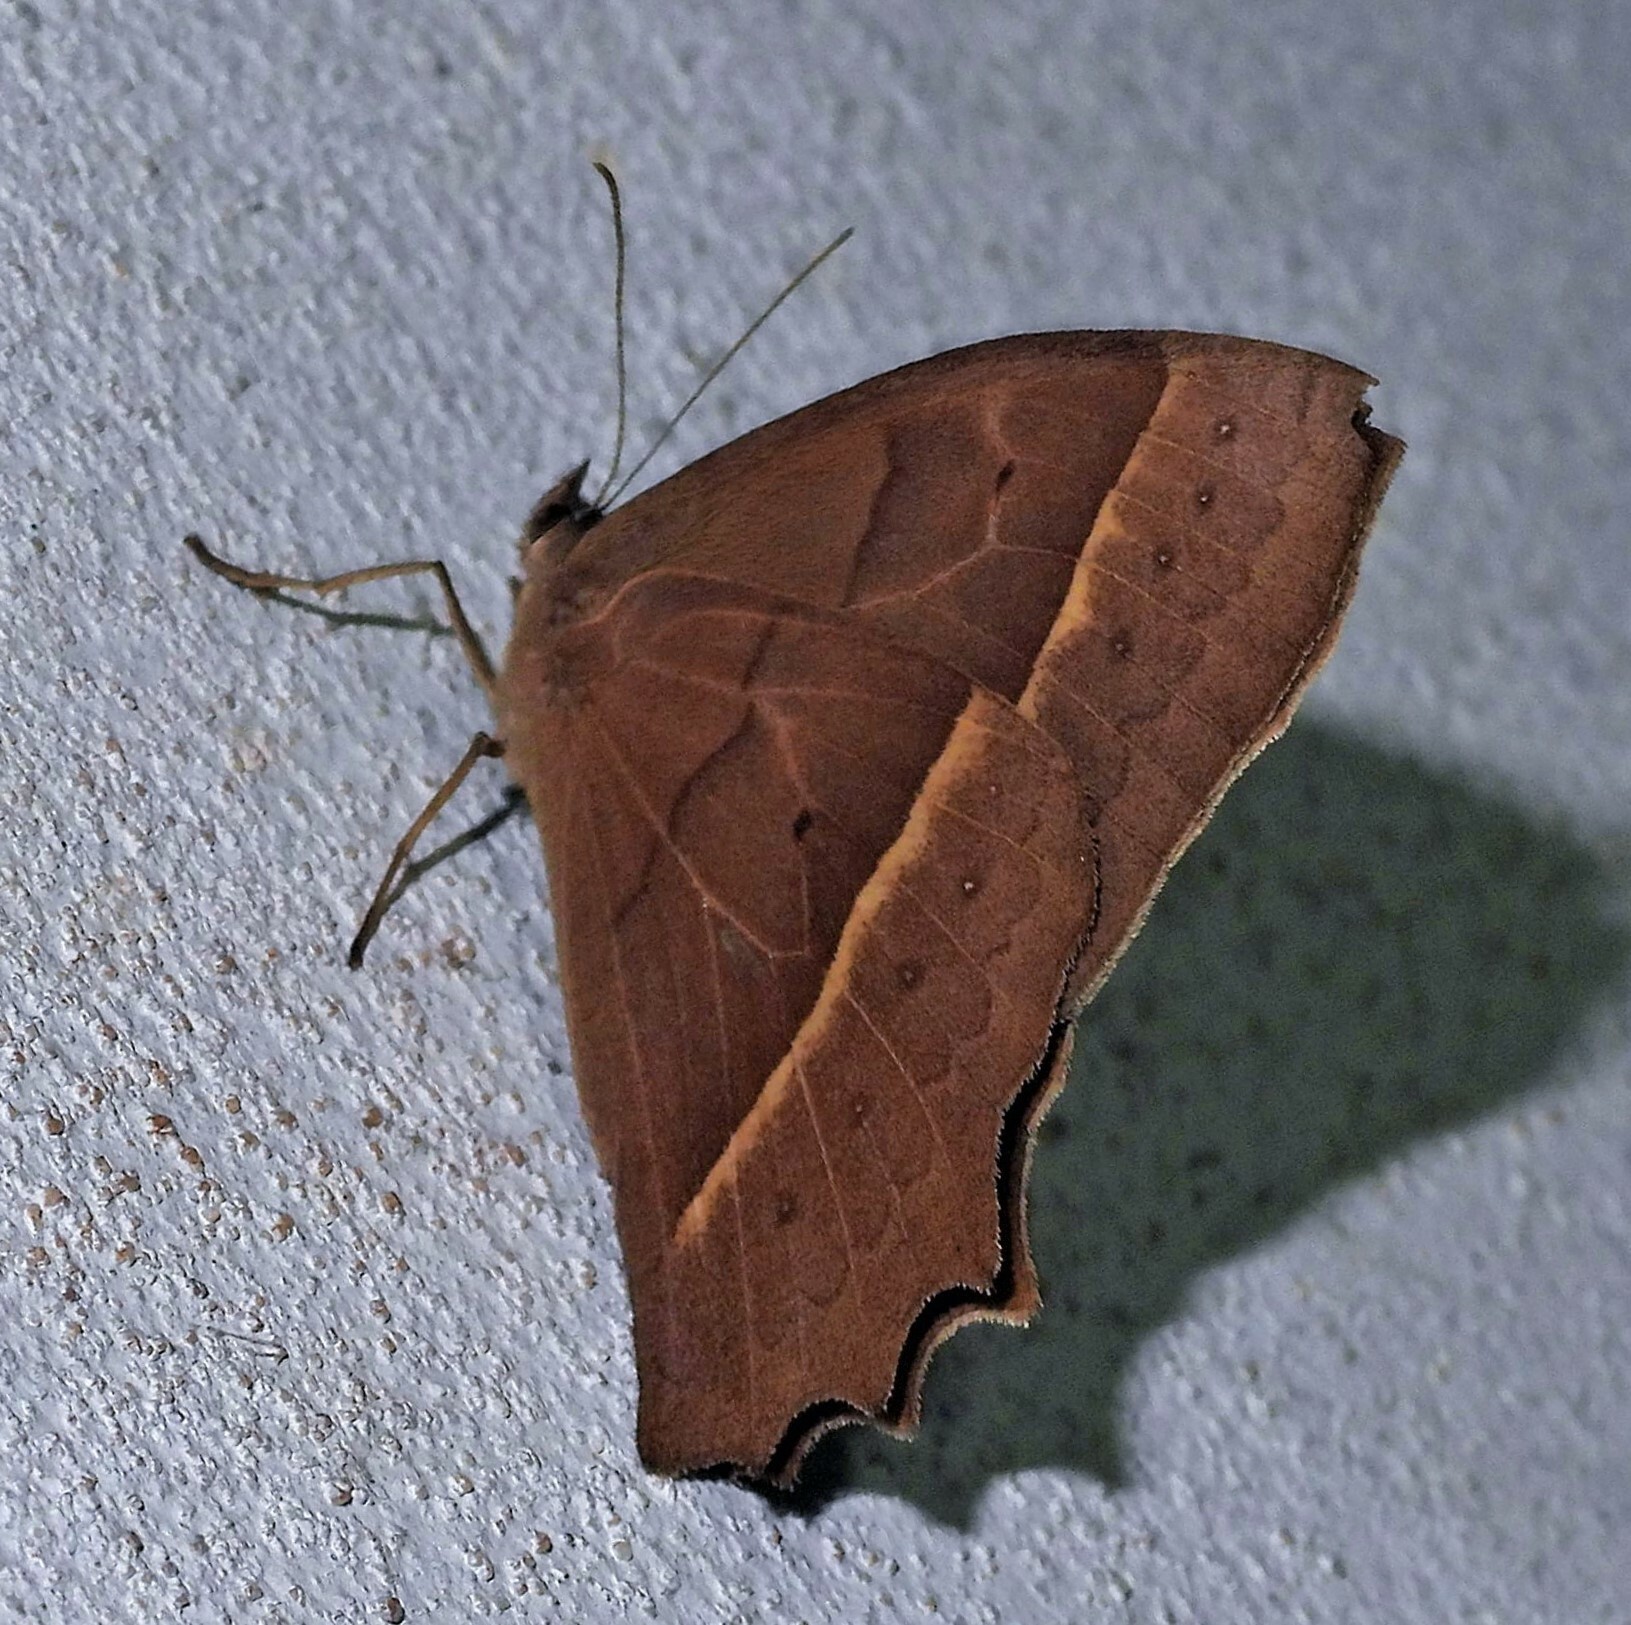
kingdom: Animalia
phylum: Arthropoda
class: Insecta
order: Lepidoptera
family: Nymphalidae
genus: Taygetis
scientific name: Taygetis tripunctata
